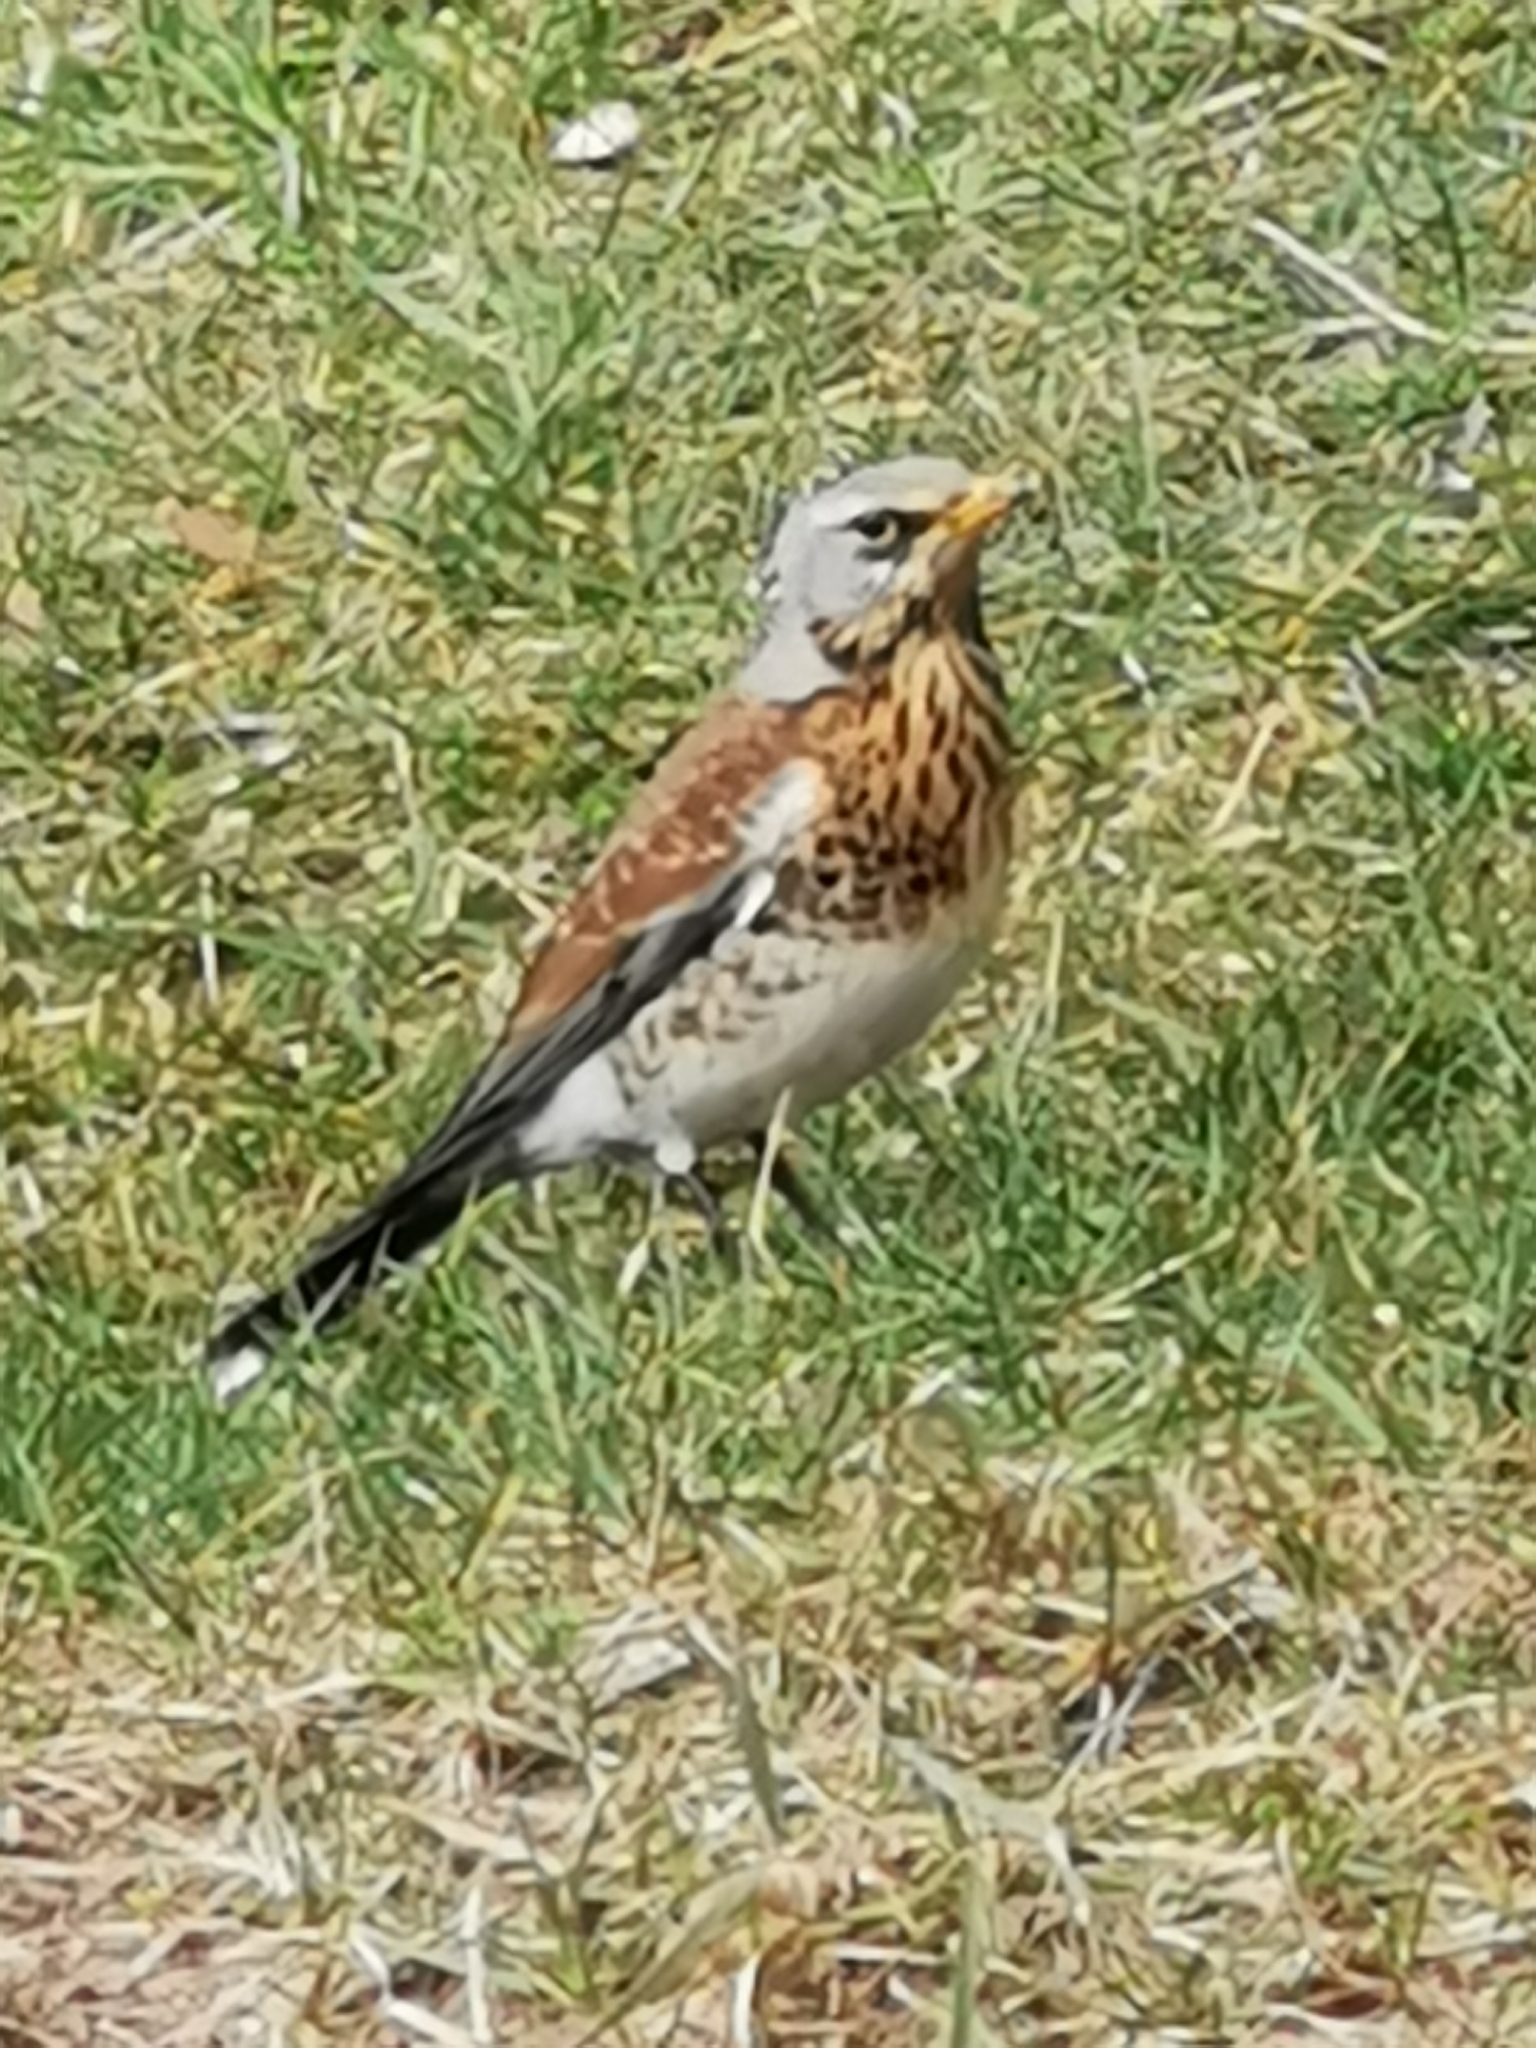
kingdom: Animalia
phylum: Chordata
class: Aves
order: Passeriformes
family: Turdidae
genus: Turdus
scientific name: Turdus pilaris
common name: Fieldfare
